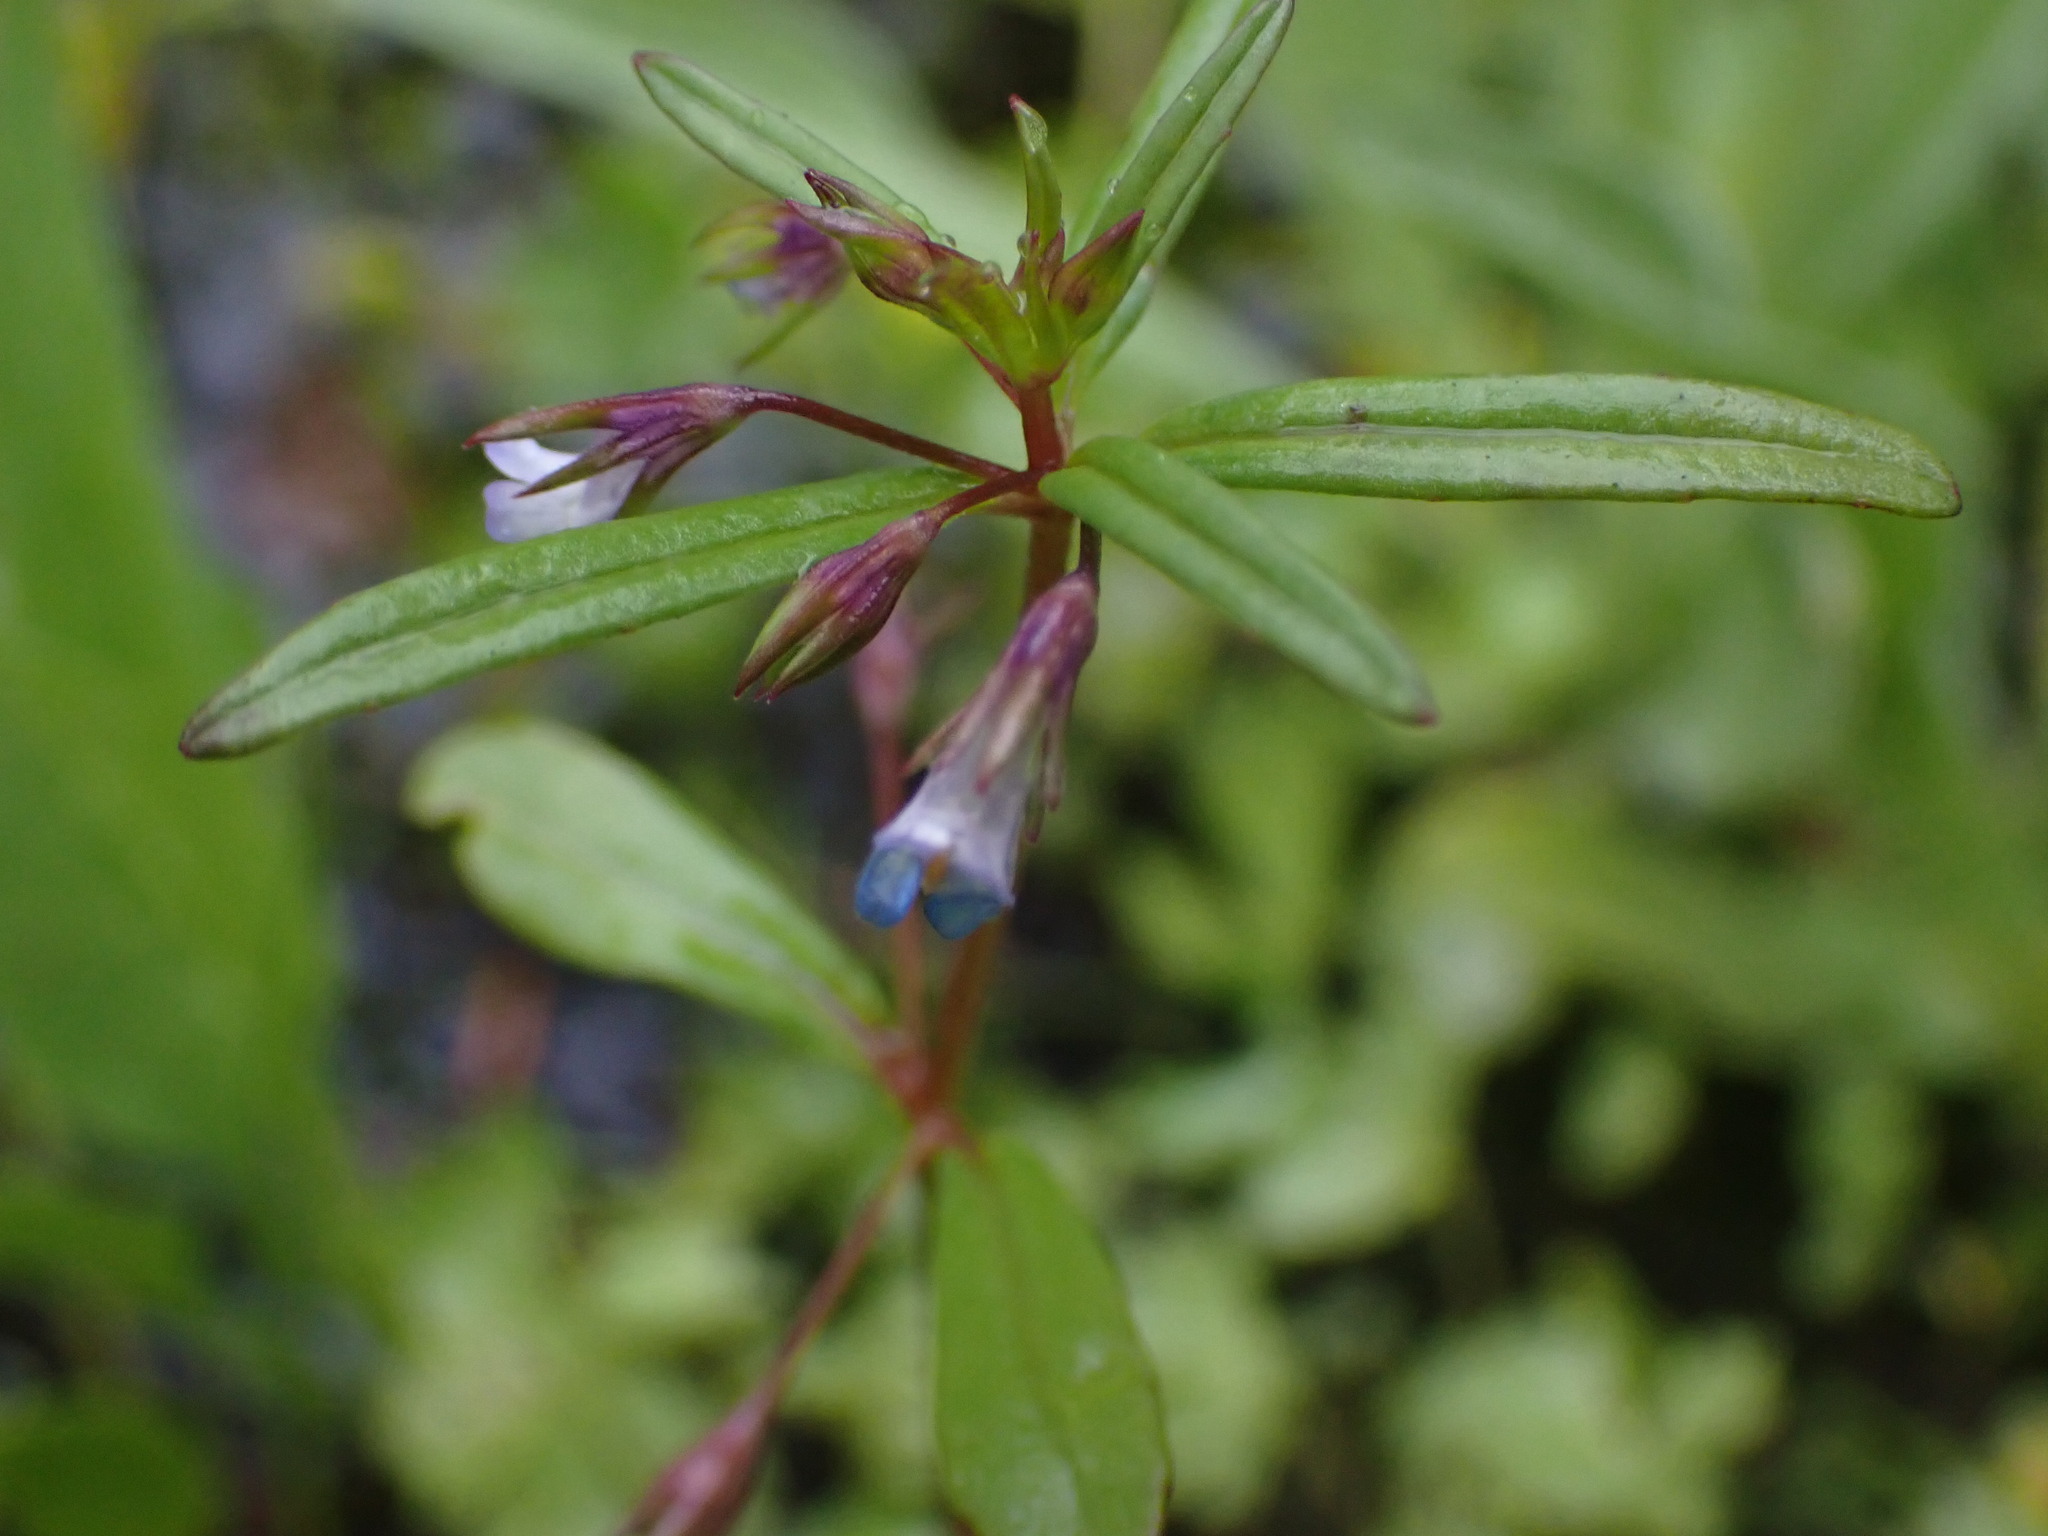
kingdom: Plantae
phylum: Tracheophyta
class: Magnoliopsida
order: Lamiales
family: Plantaginaceae
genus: Collinsia
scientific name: Collinsia parviflora
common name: Blue-lips
